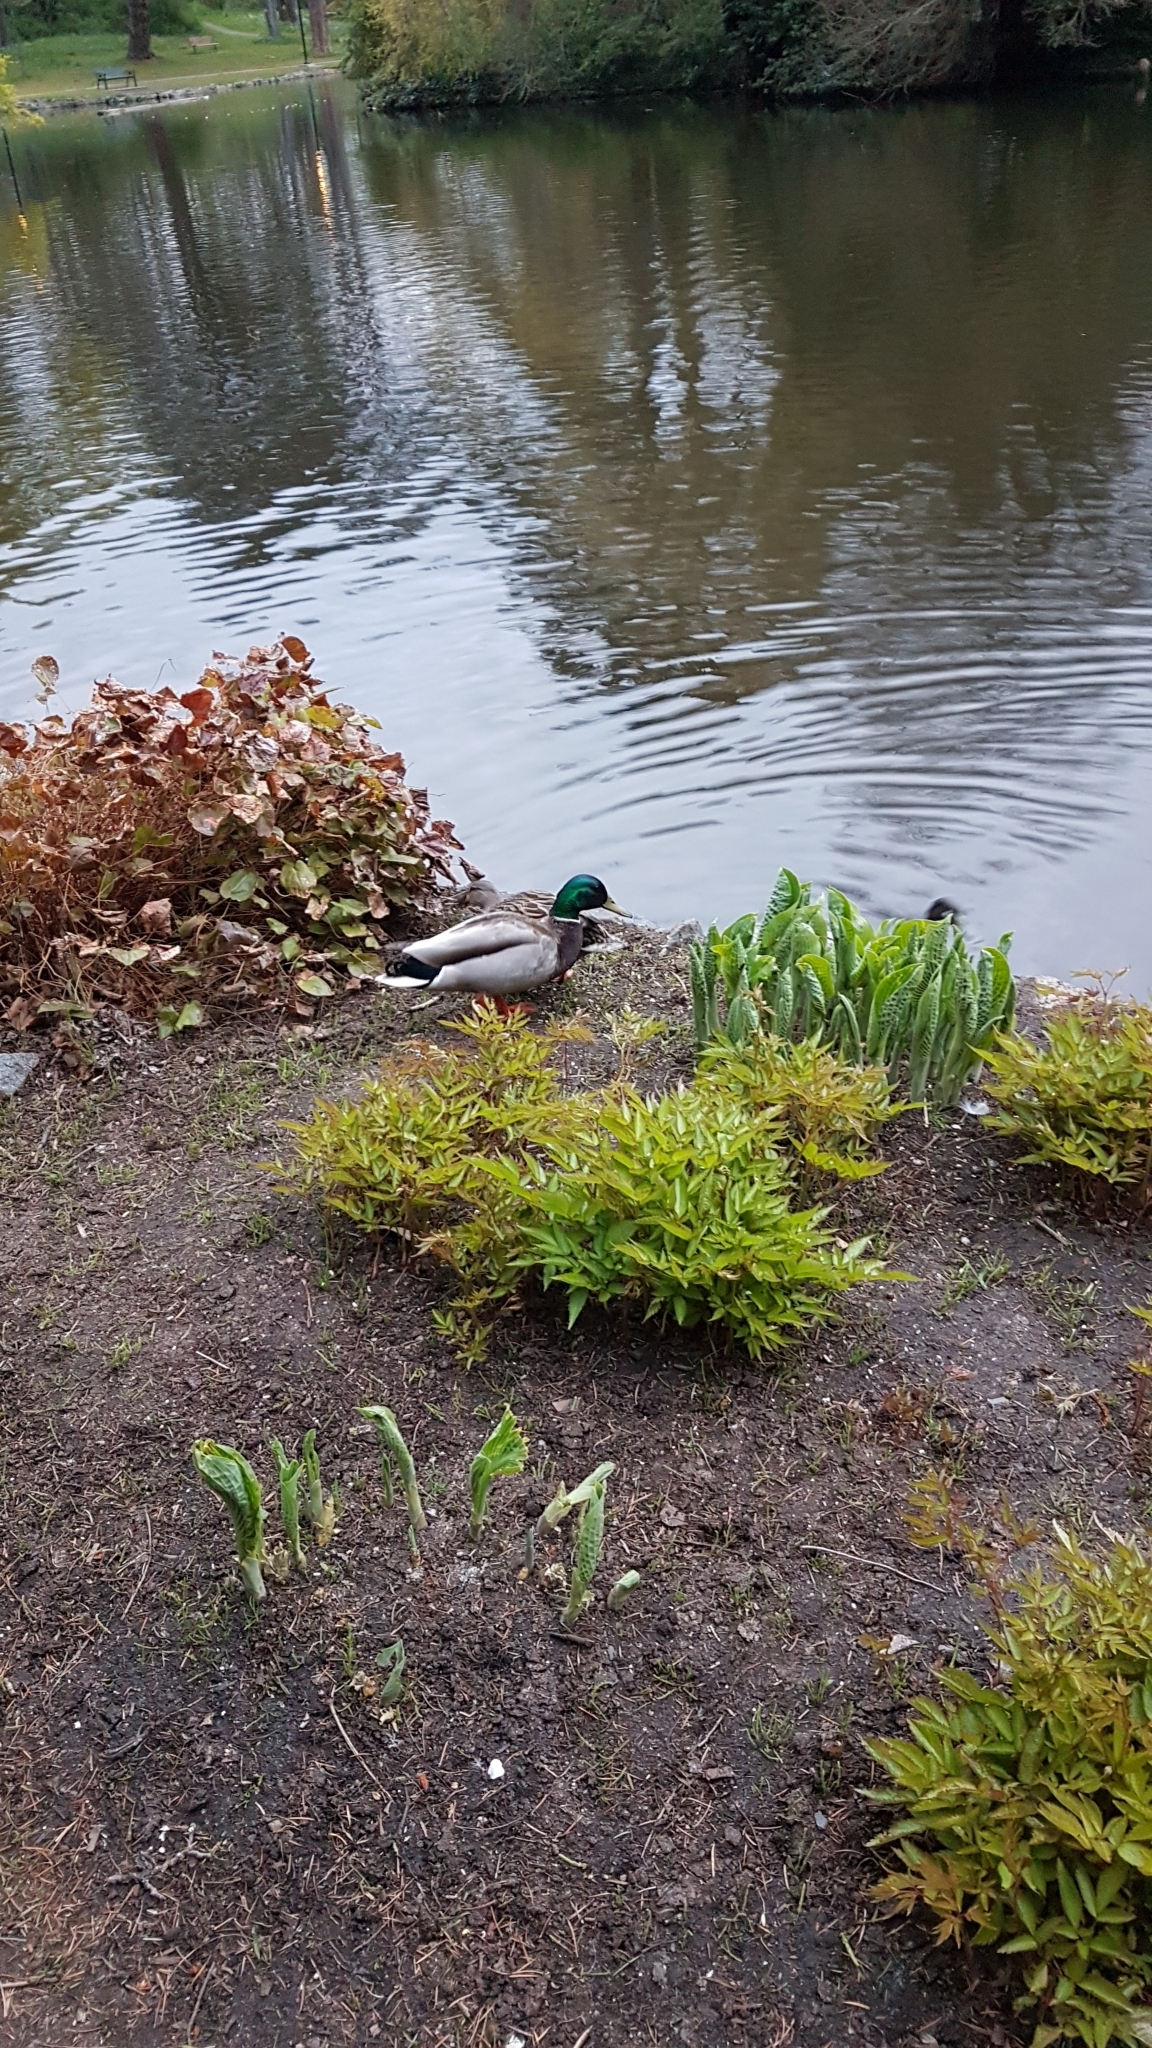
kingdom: Animalia
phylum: Chordata
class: Aves
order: Anseriformes
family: Anatidae
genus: Anas
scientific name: Anas platyrhynchos
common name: Mallard
